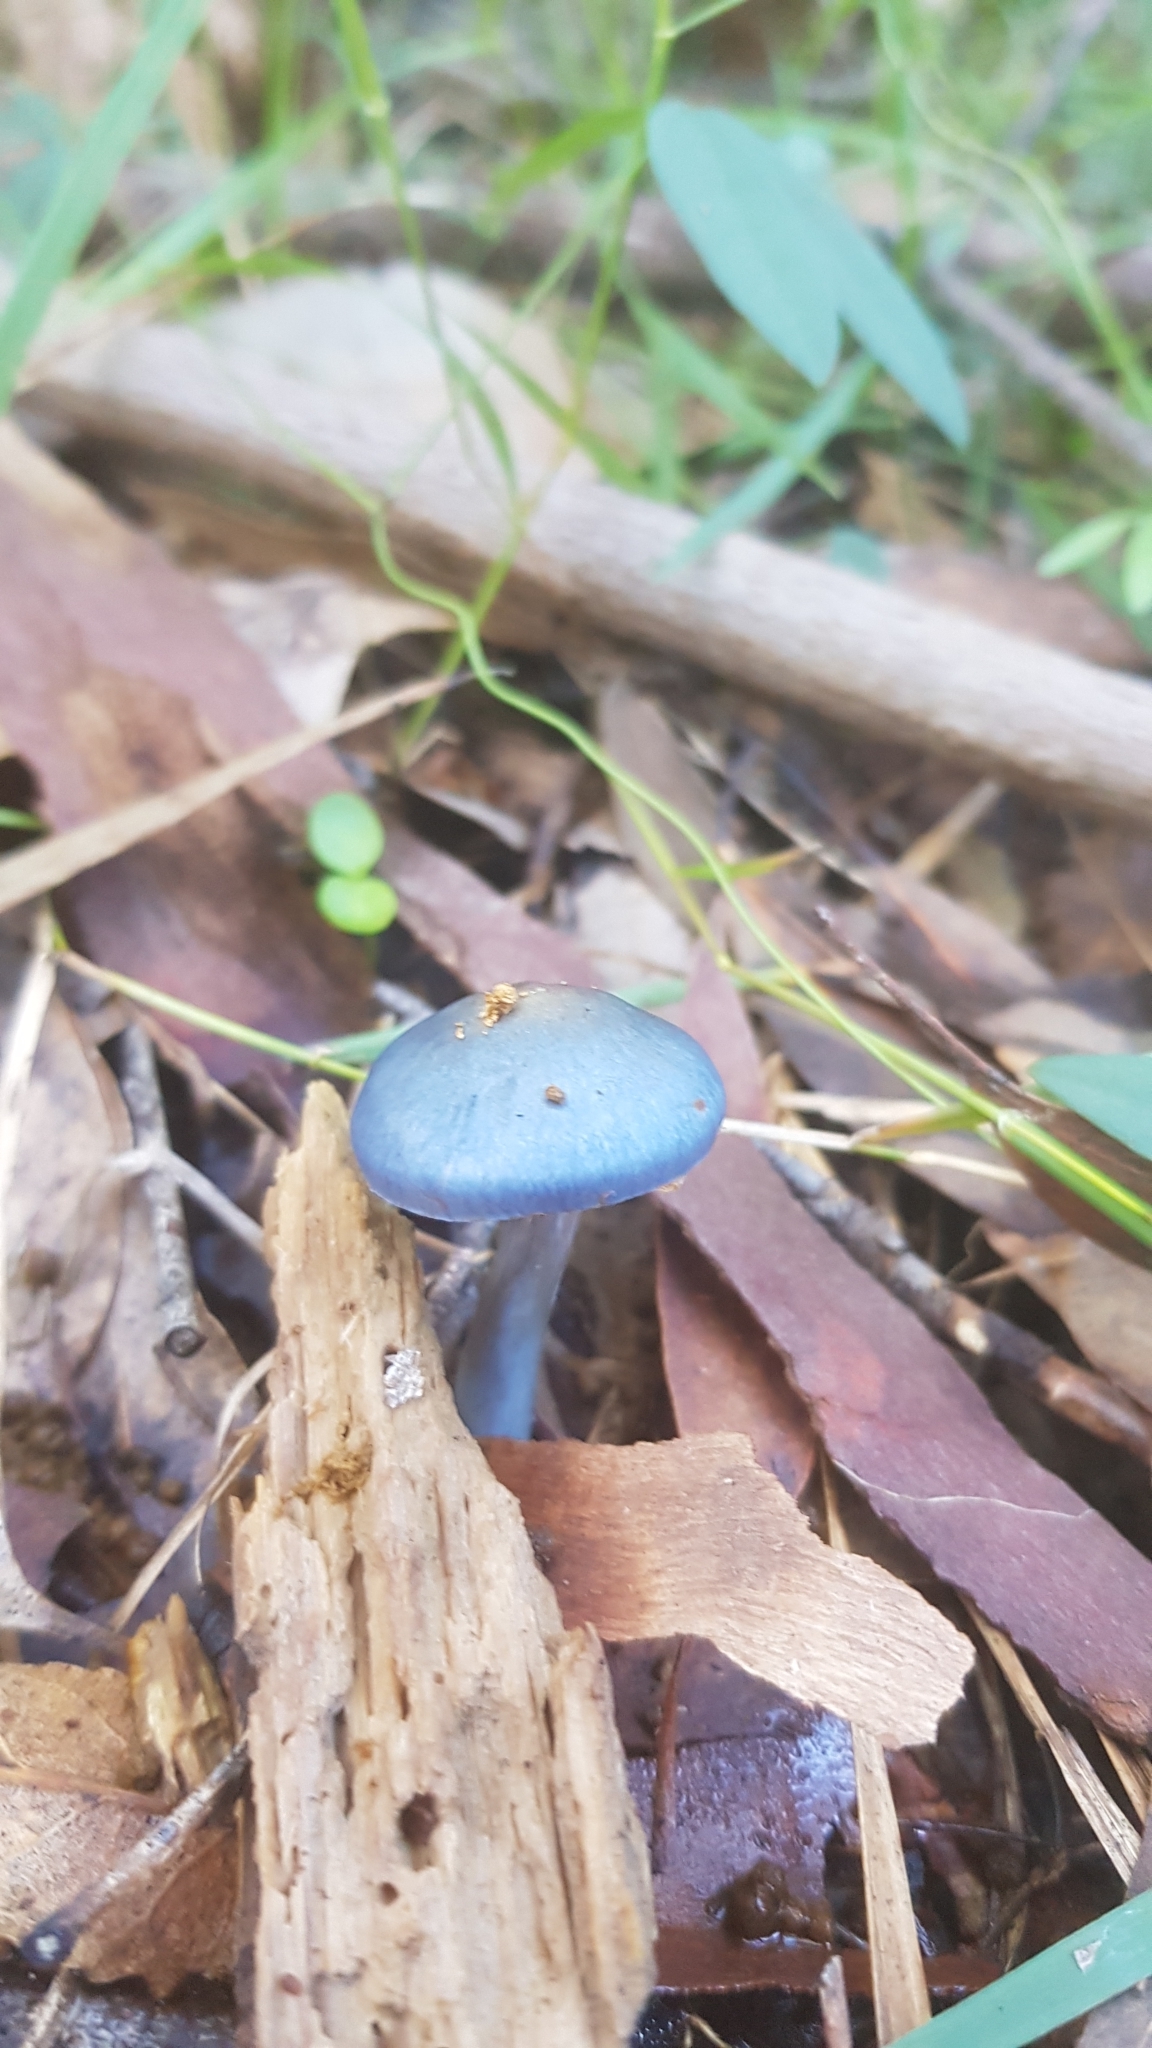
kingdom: Fungi
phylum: Basidiomycota
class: Agaricomycetes
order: Agaricales
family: Cortinariaceae
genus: Cortinarius
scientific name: Cortinarius rotundisporus
